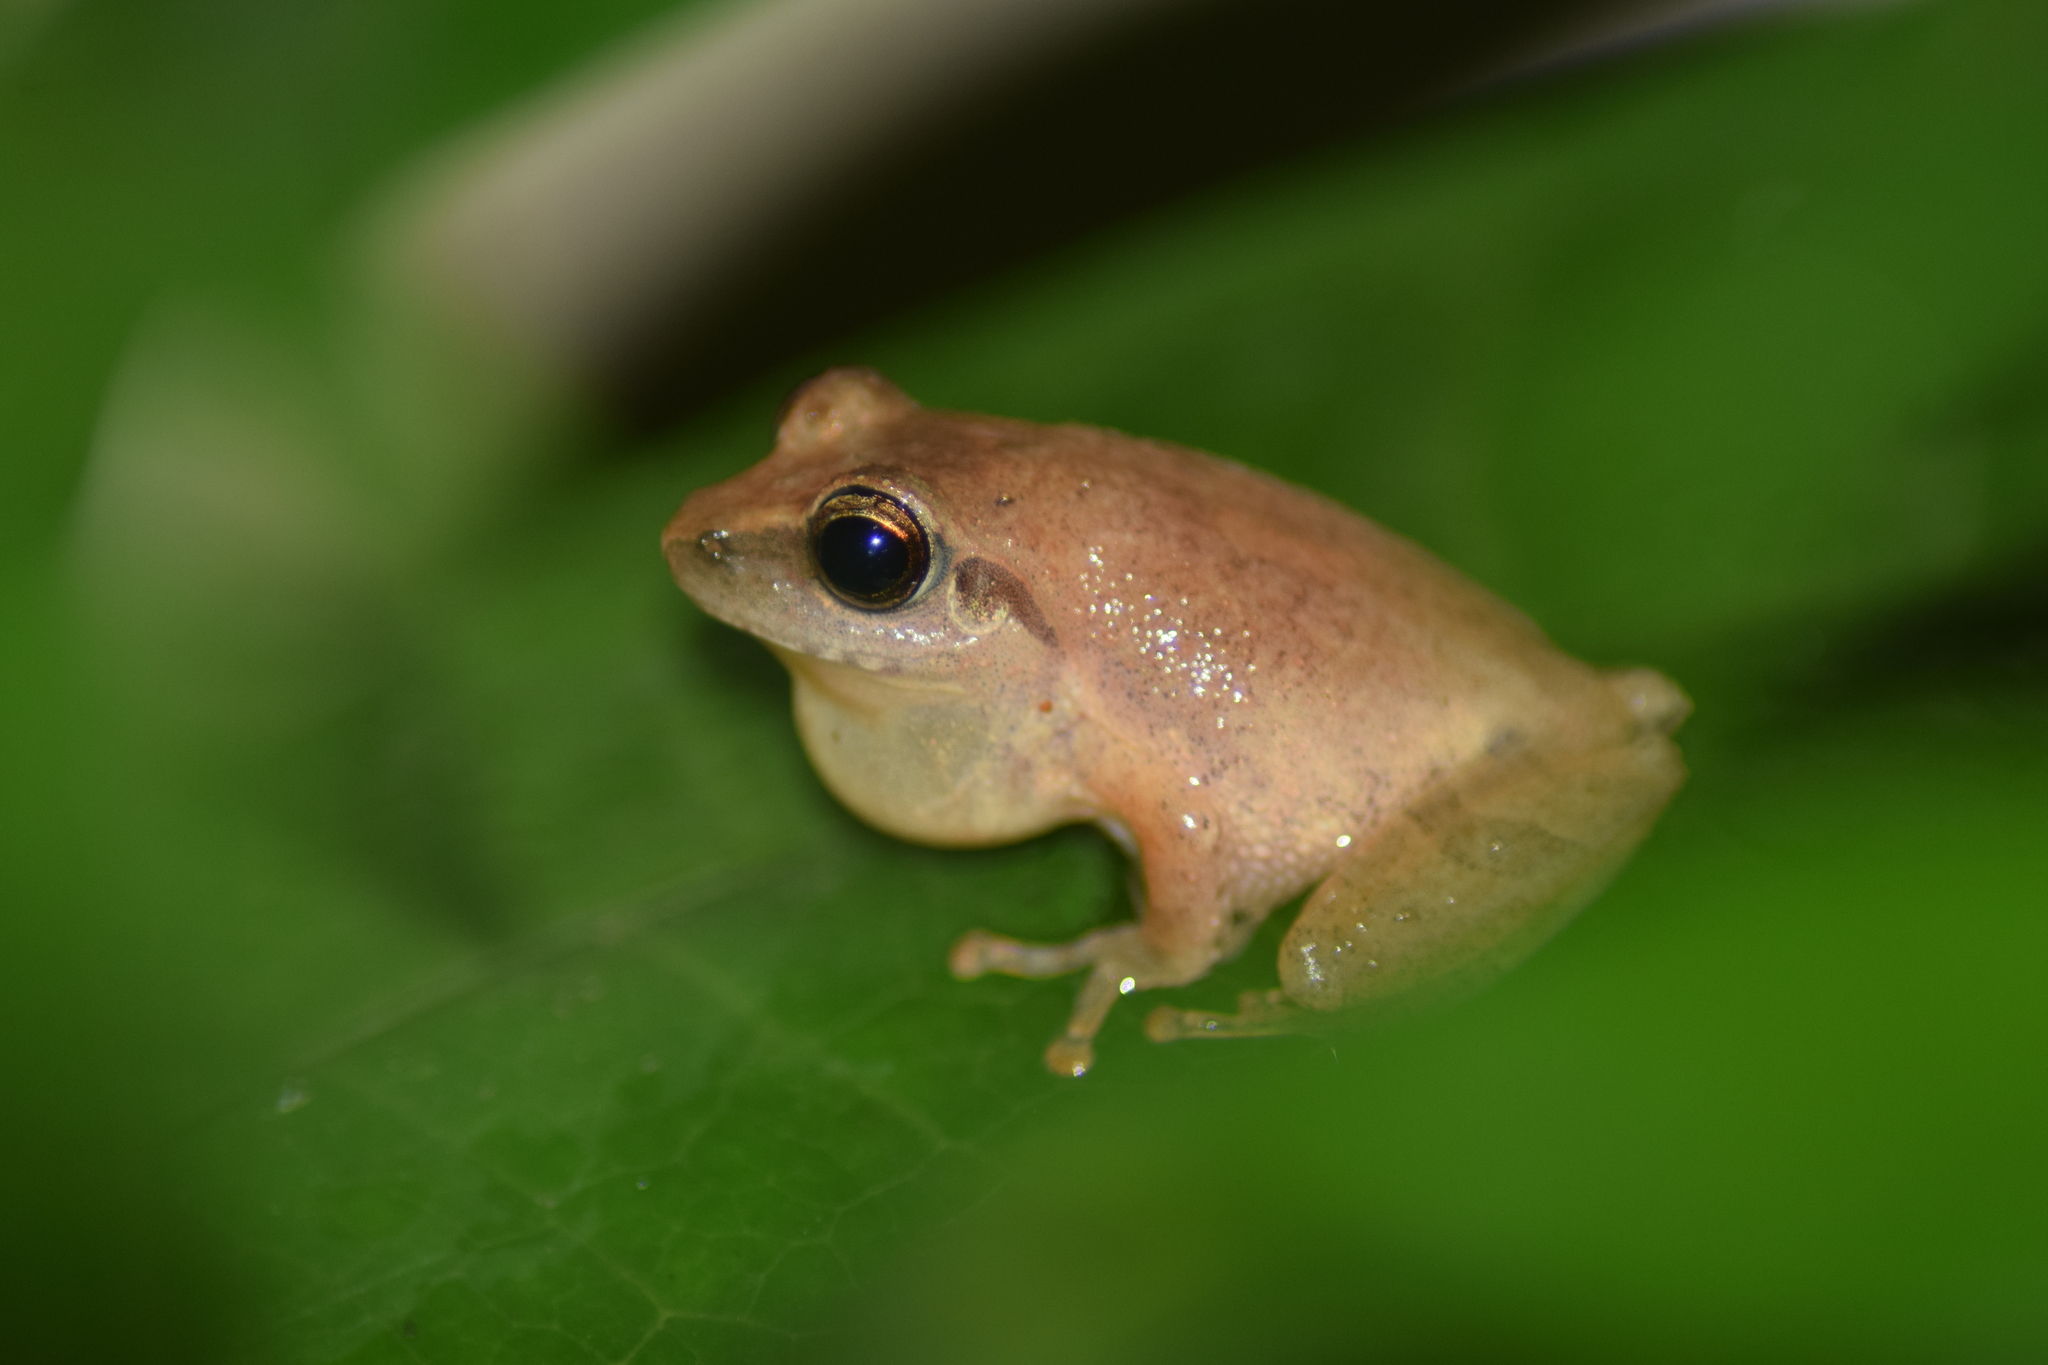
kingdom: Animalia
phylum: Chordata
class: Amphibia
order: Anura
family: Rhacophoridae
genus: Pseudophilautus
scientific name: Pseudophilautus wynaadensis
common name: Dark-eared bush frog
